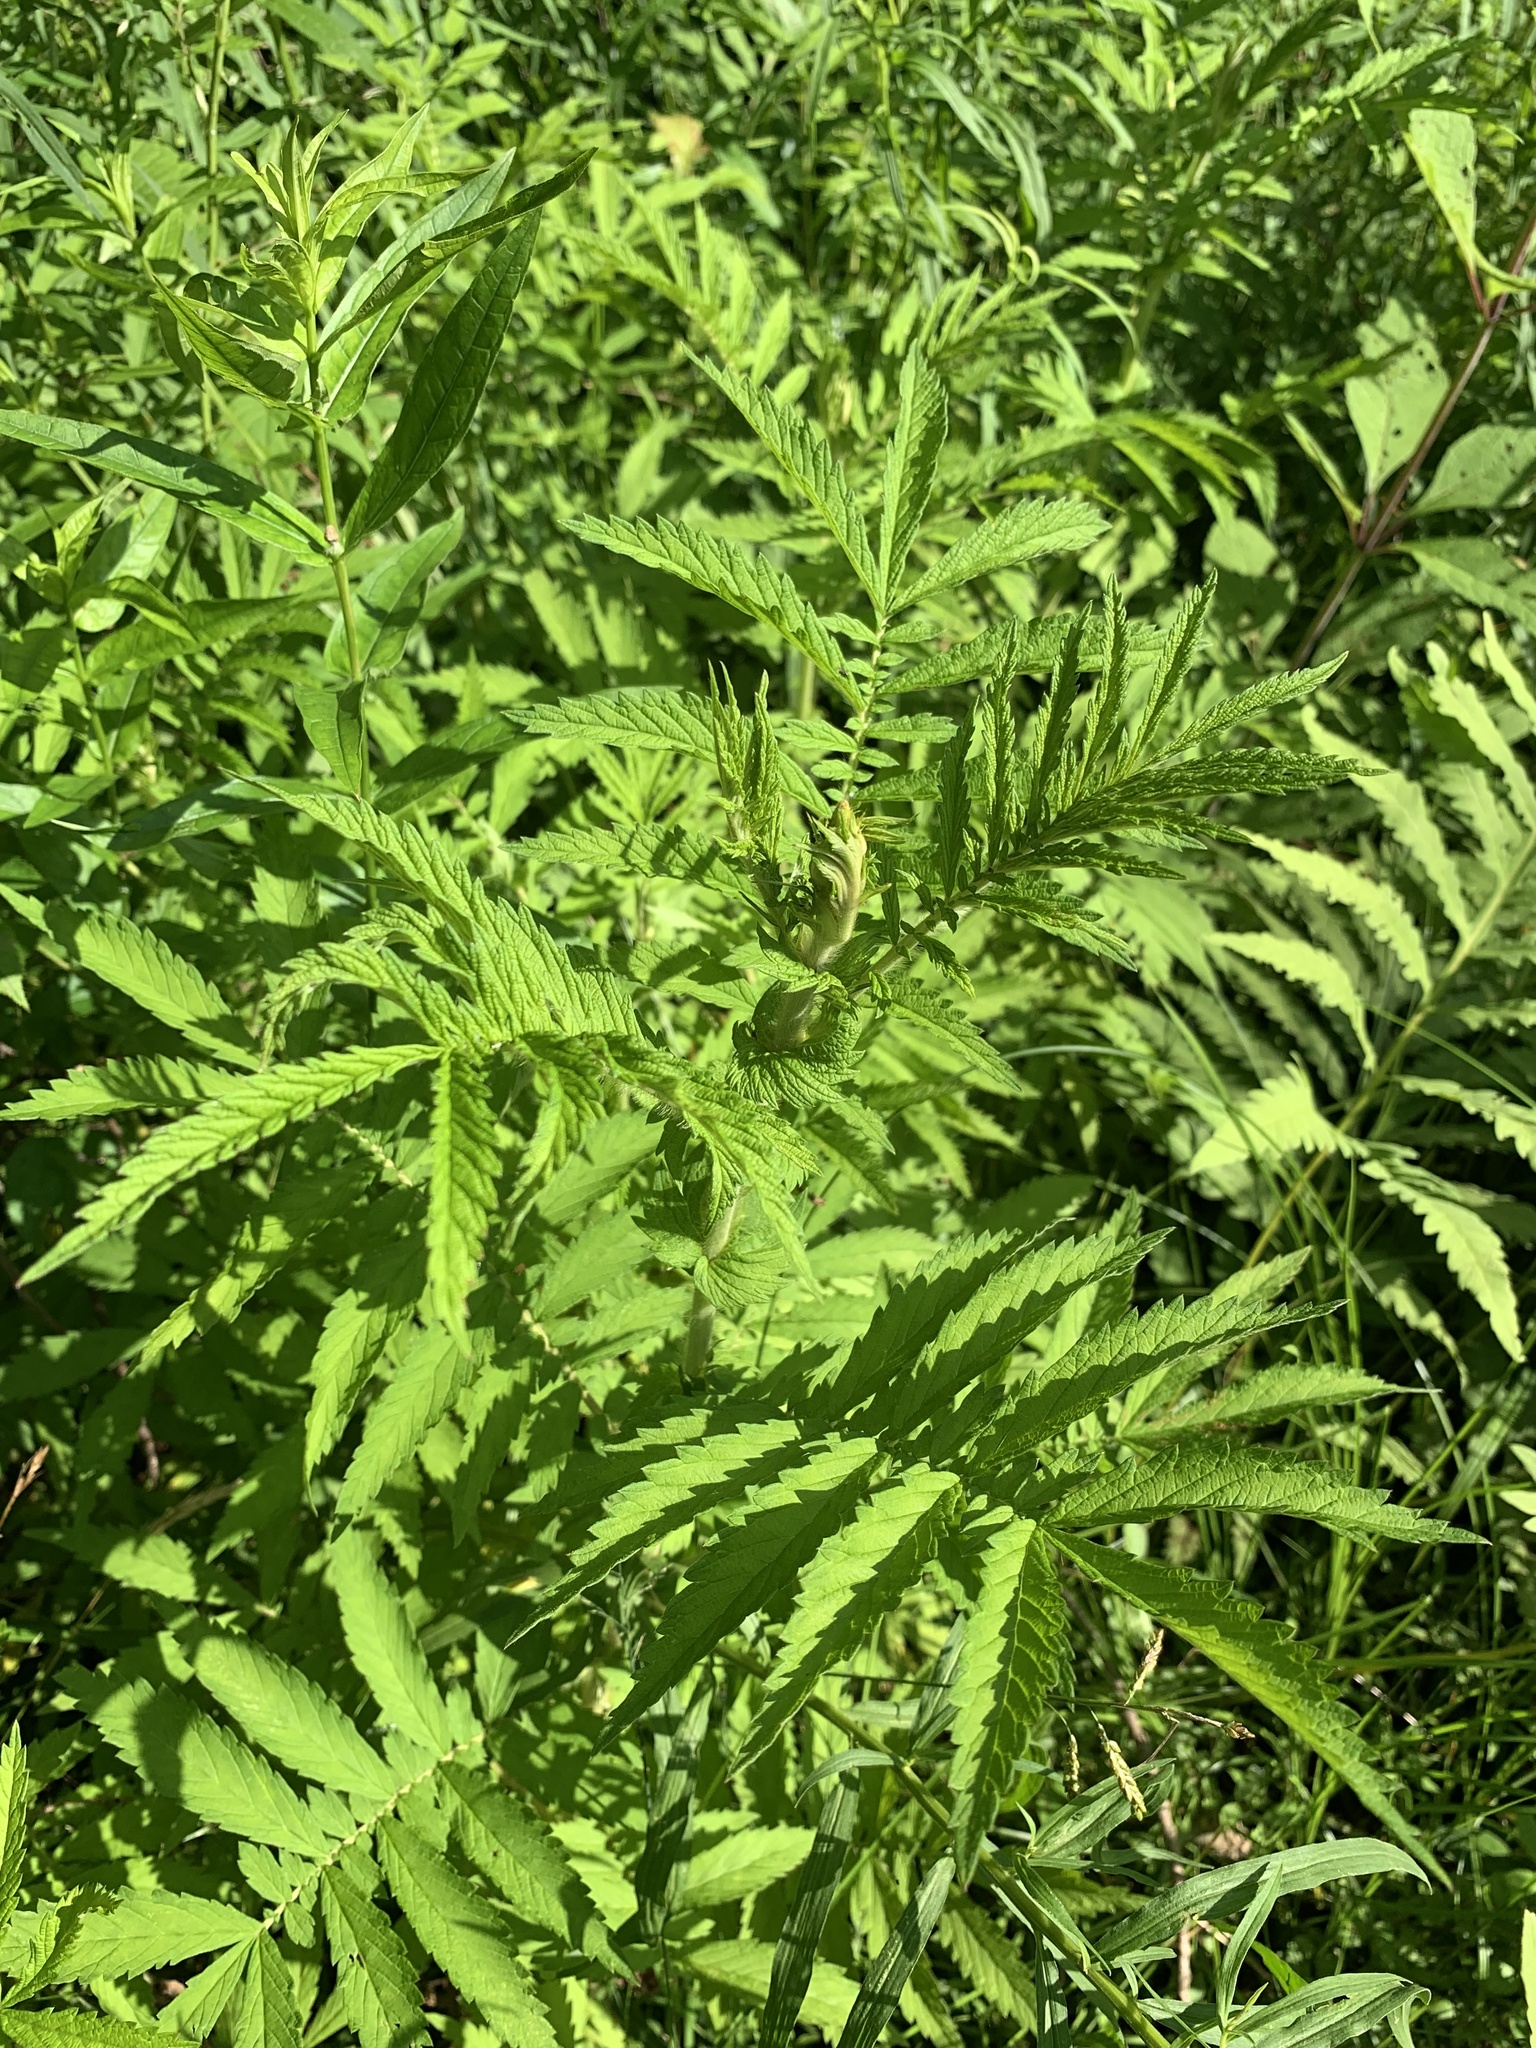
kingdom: Plantae
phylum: Tracheophyta
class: Magnoliopsida
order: Rosales
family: Rosaceae
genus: Agrimonia
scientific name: Agrimonia parviflora
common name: Harvest-lice
